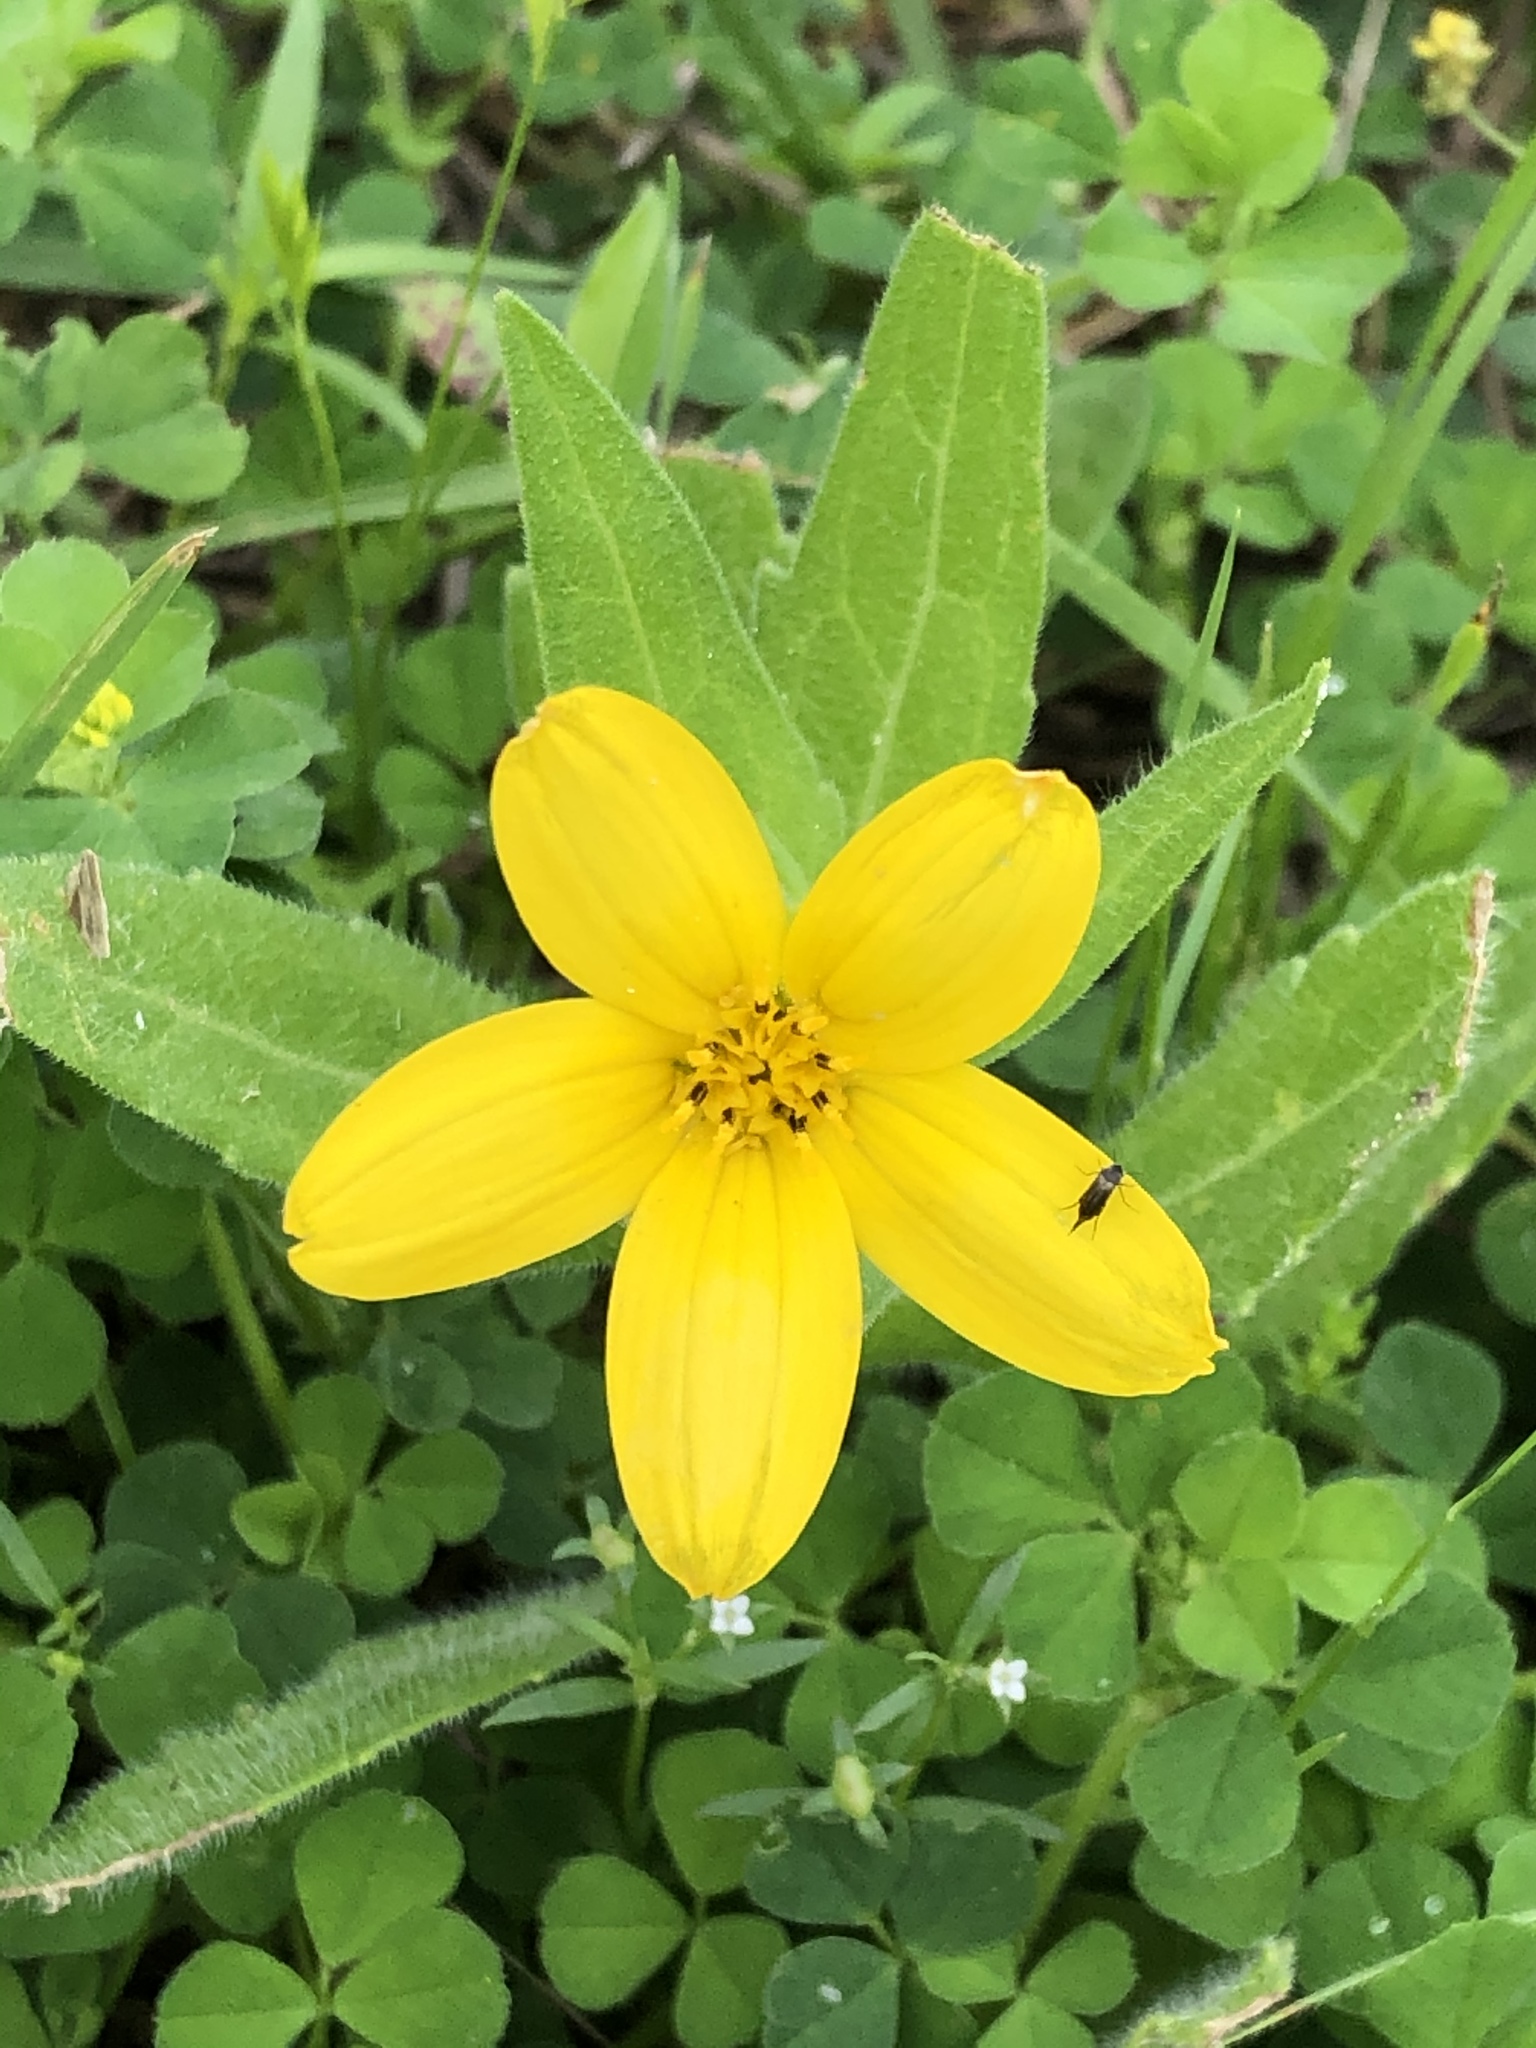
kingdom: Plantae
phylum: Tracheophyta
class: Magnoliopsida
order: Asterales
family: Asteraceae
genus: Lindheimera
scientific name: Lindheimera texana
